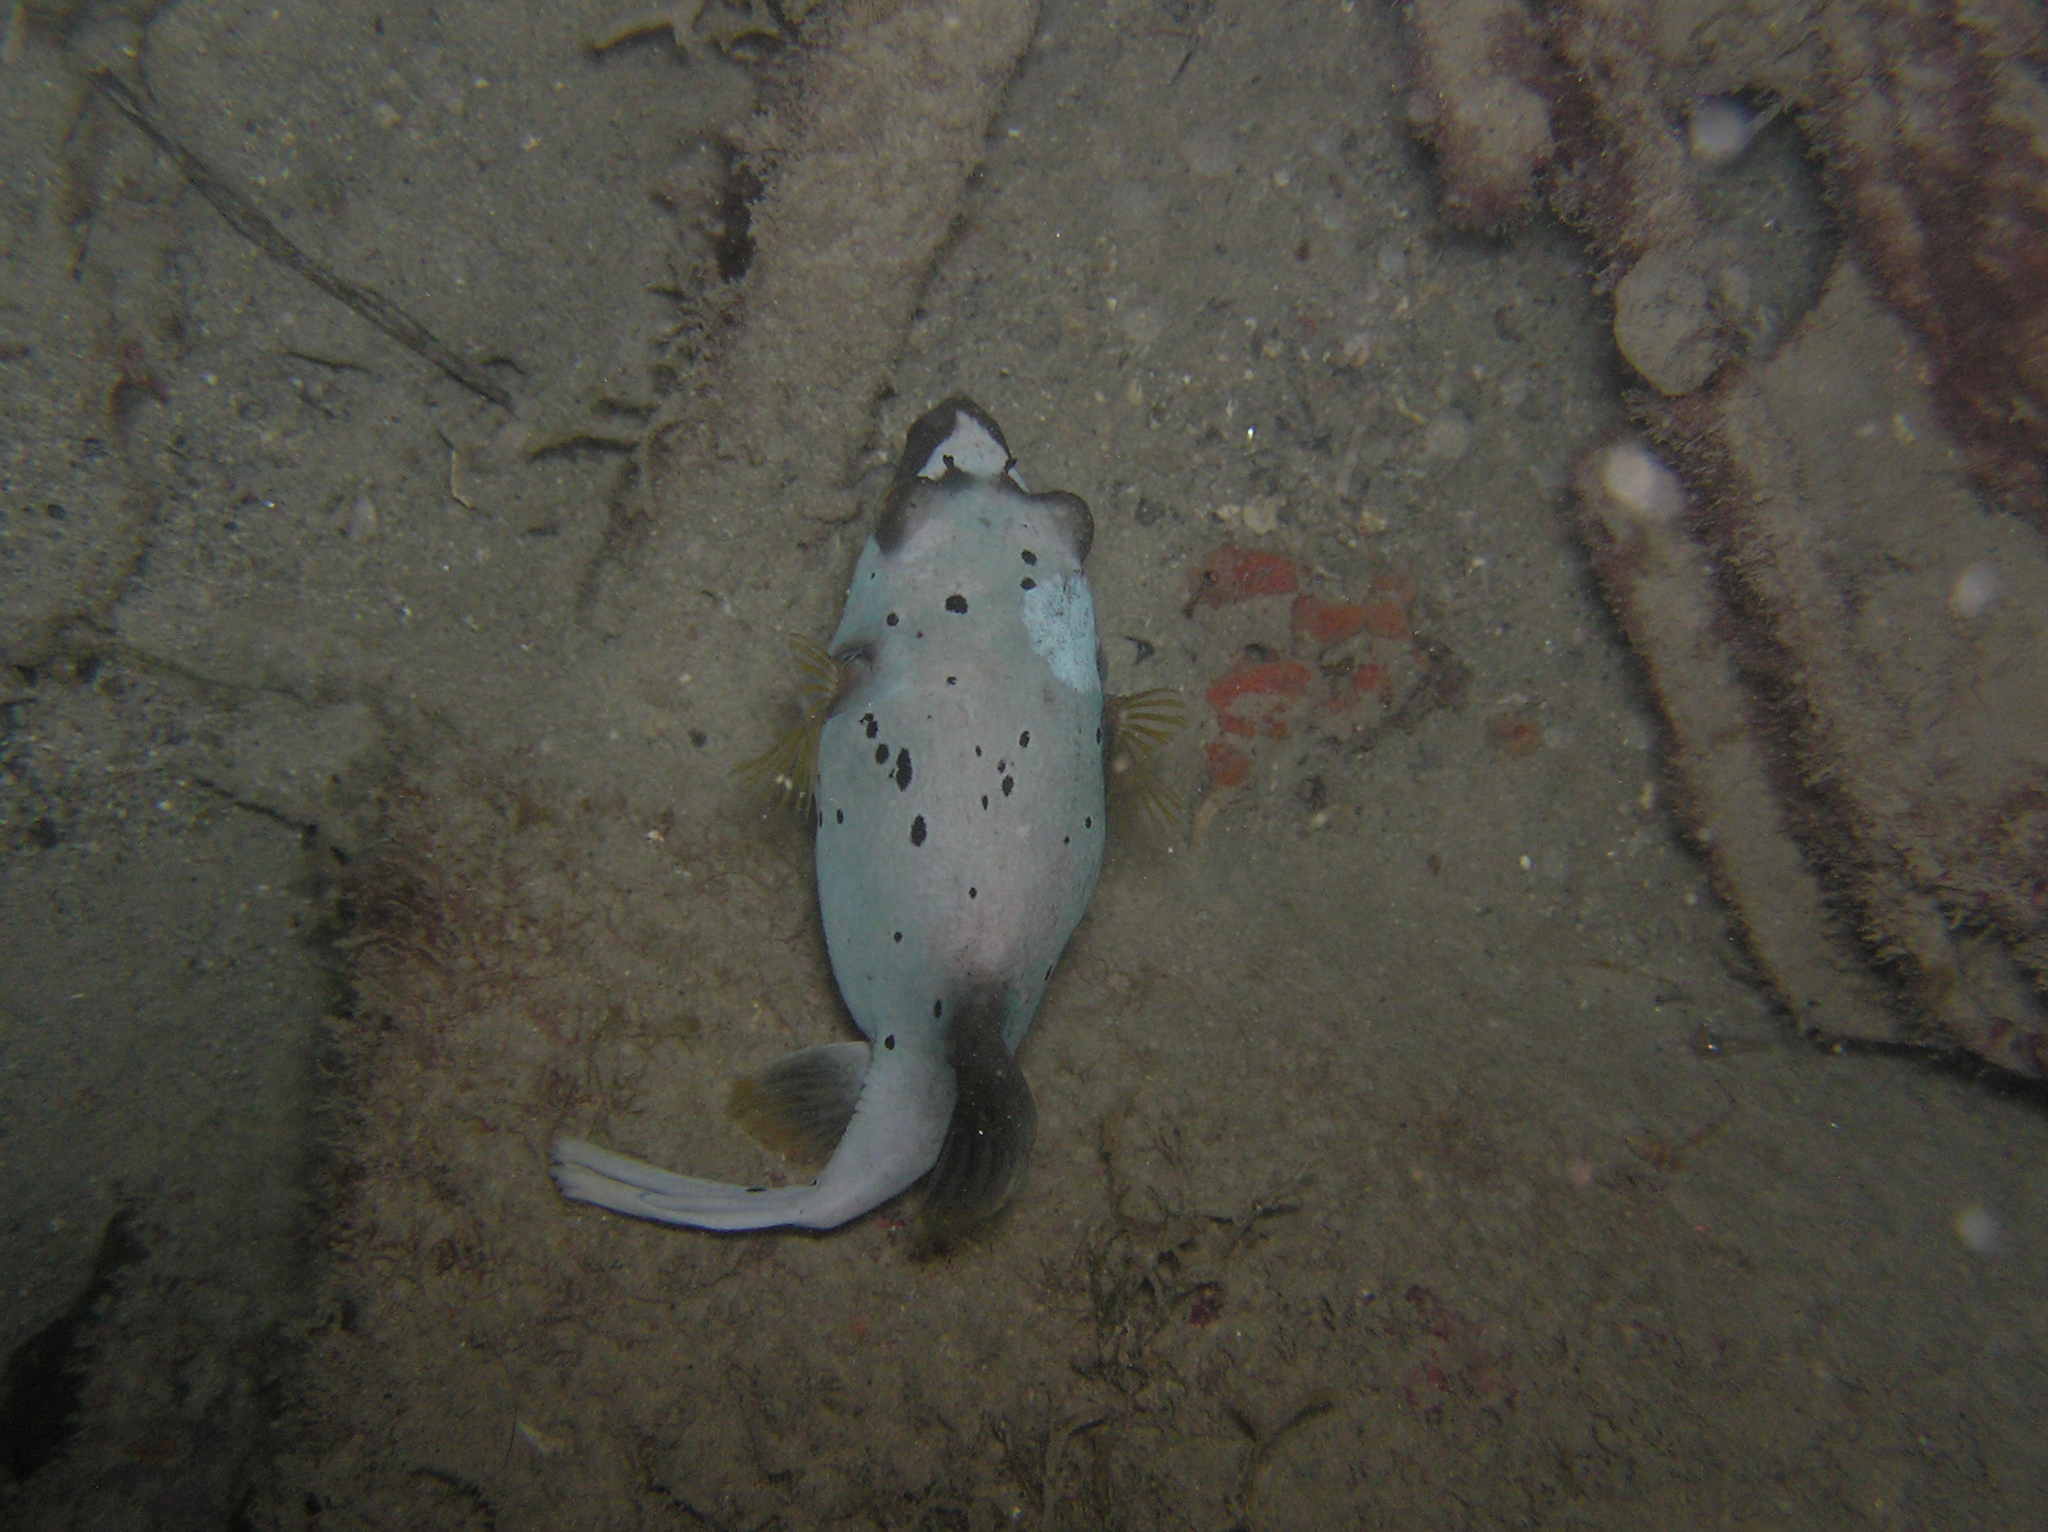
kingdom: Animalia
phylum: Chordata
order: Tetraodontiformes
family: Tetraodontidae
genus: Arothron
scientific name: Arothron nigropunctatus
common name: Black spotted blow fish
